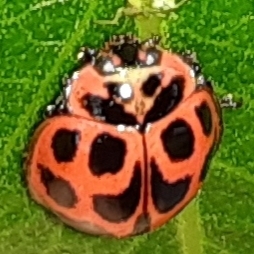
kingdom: Animalia
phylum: Arthropoda
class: Insecta
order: Coleoptera
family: Coccinellidae
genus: Neoharmonia
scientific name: Neoharmonia venusta
